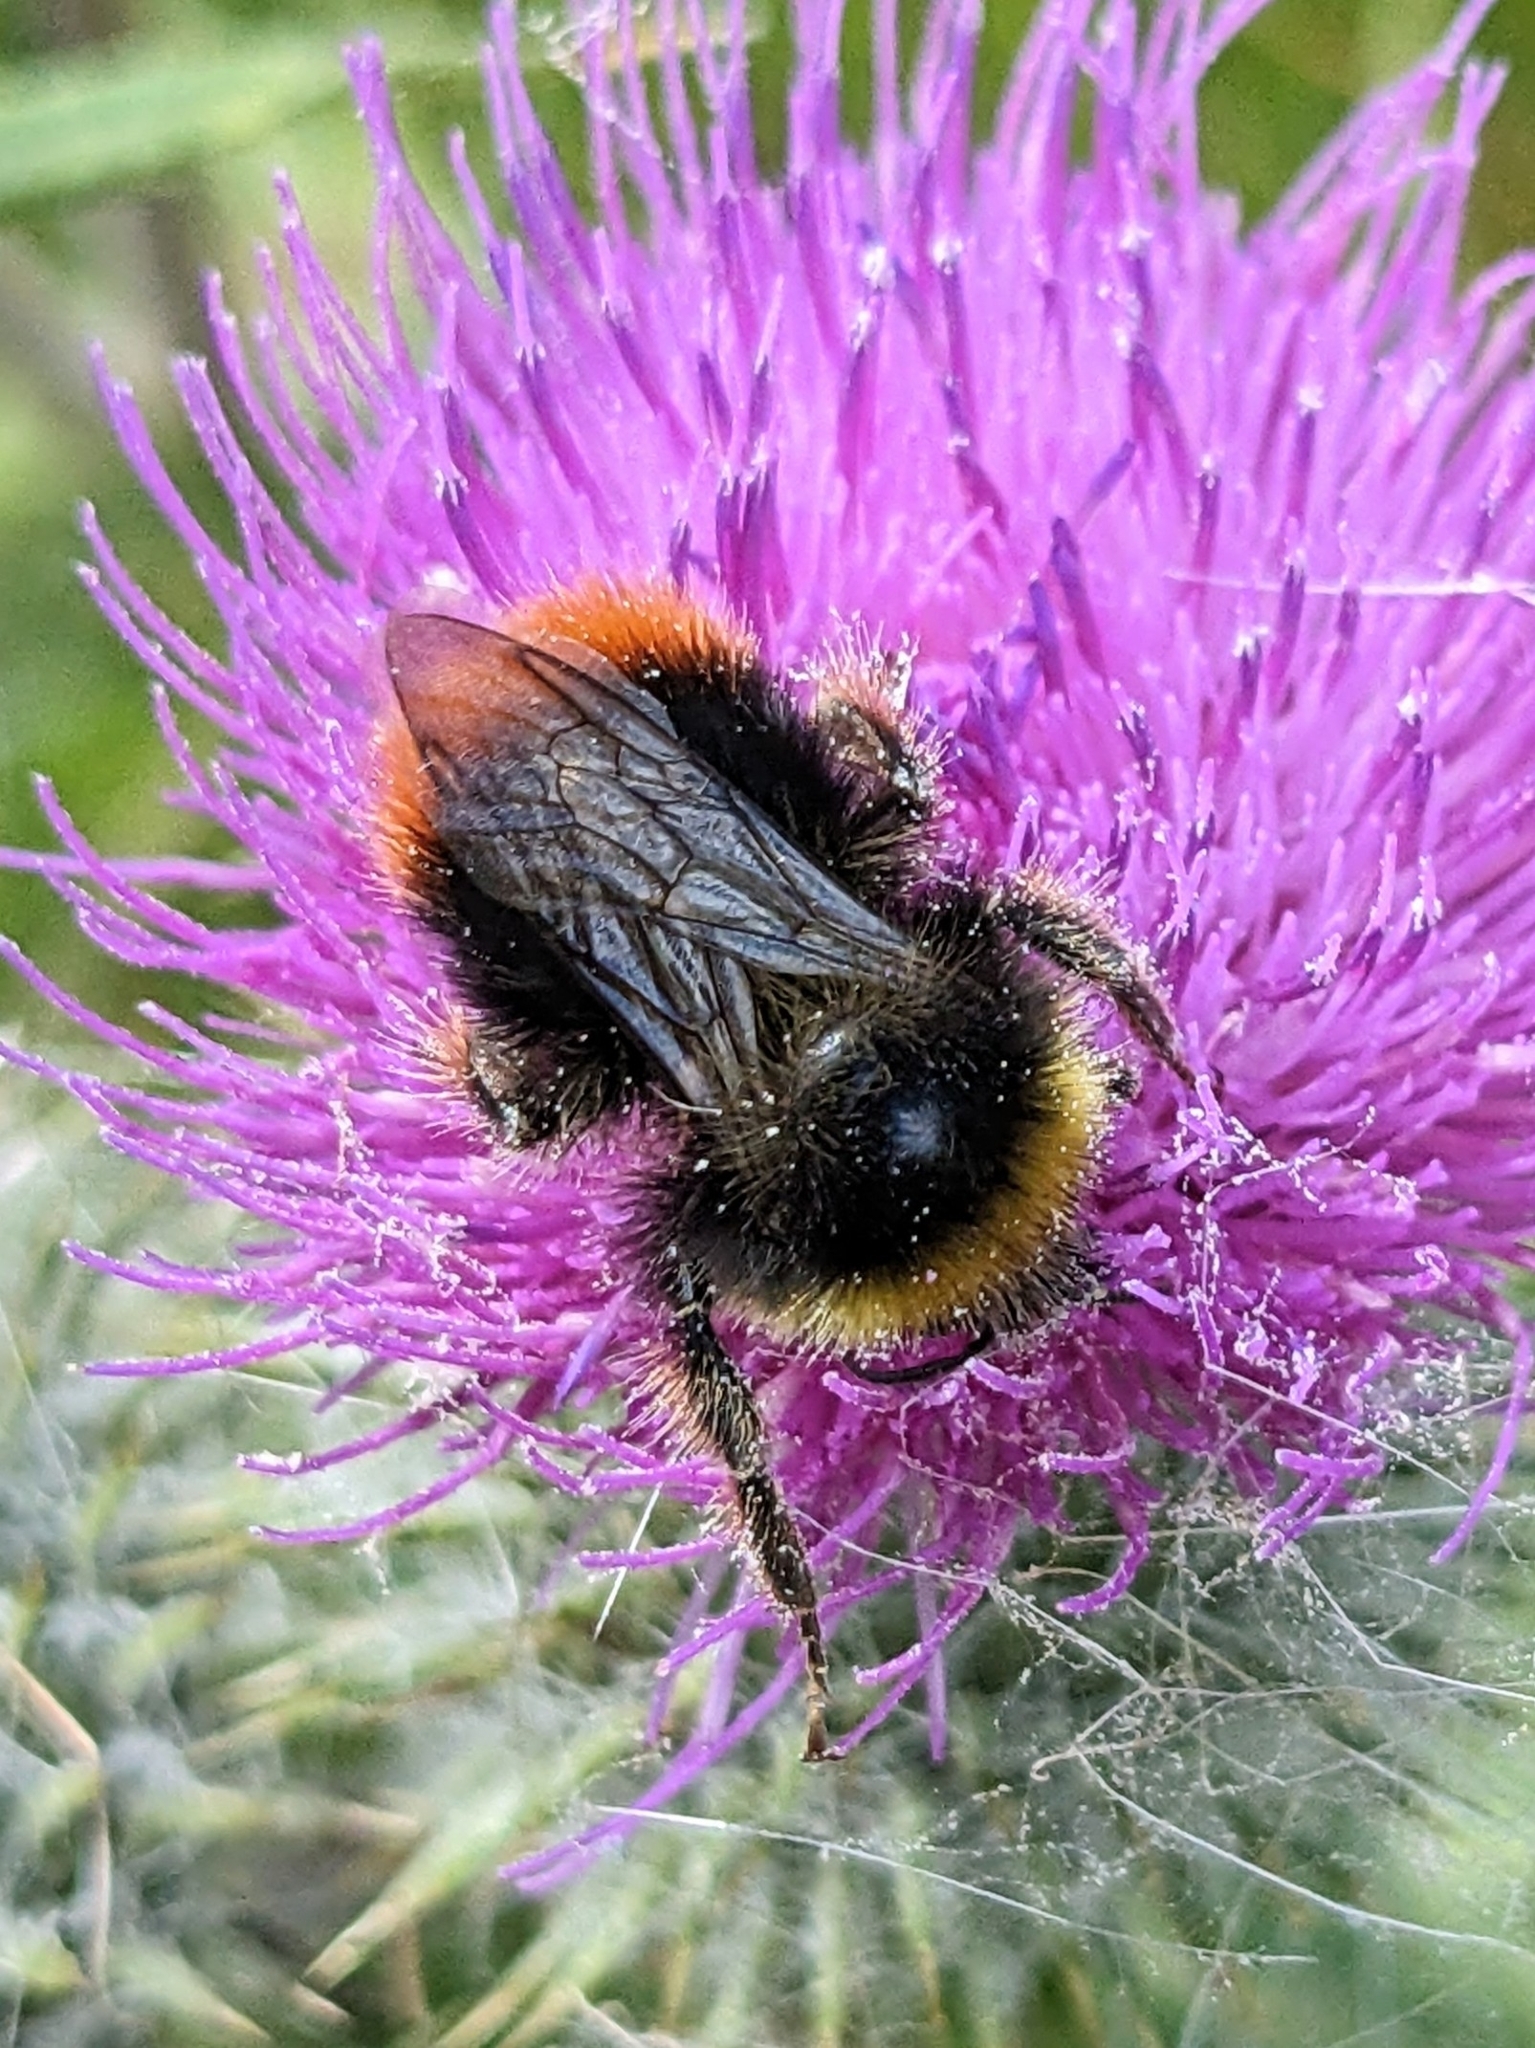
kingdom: Animalia
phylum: Arthropoda
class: Insecta
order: Hymenoptera
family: Apidae
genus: Bombus
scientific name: Bombus lapidarius
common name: Large red-tailed humble-bee
